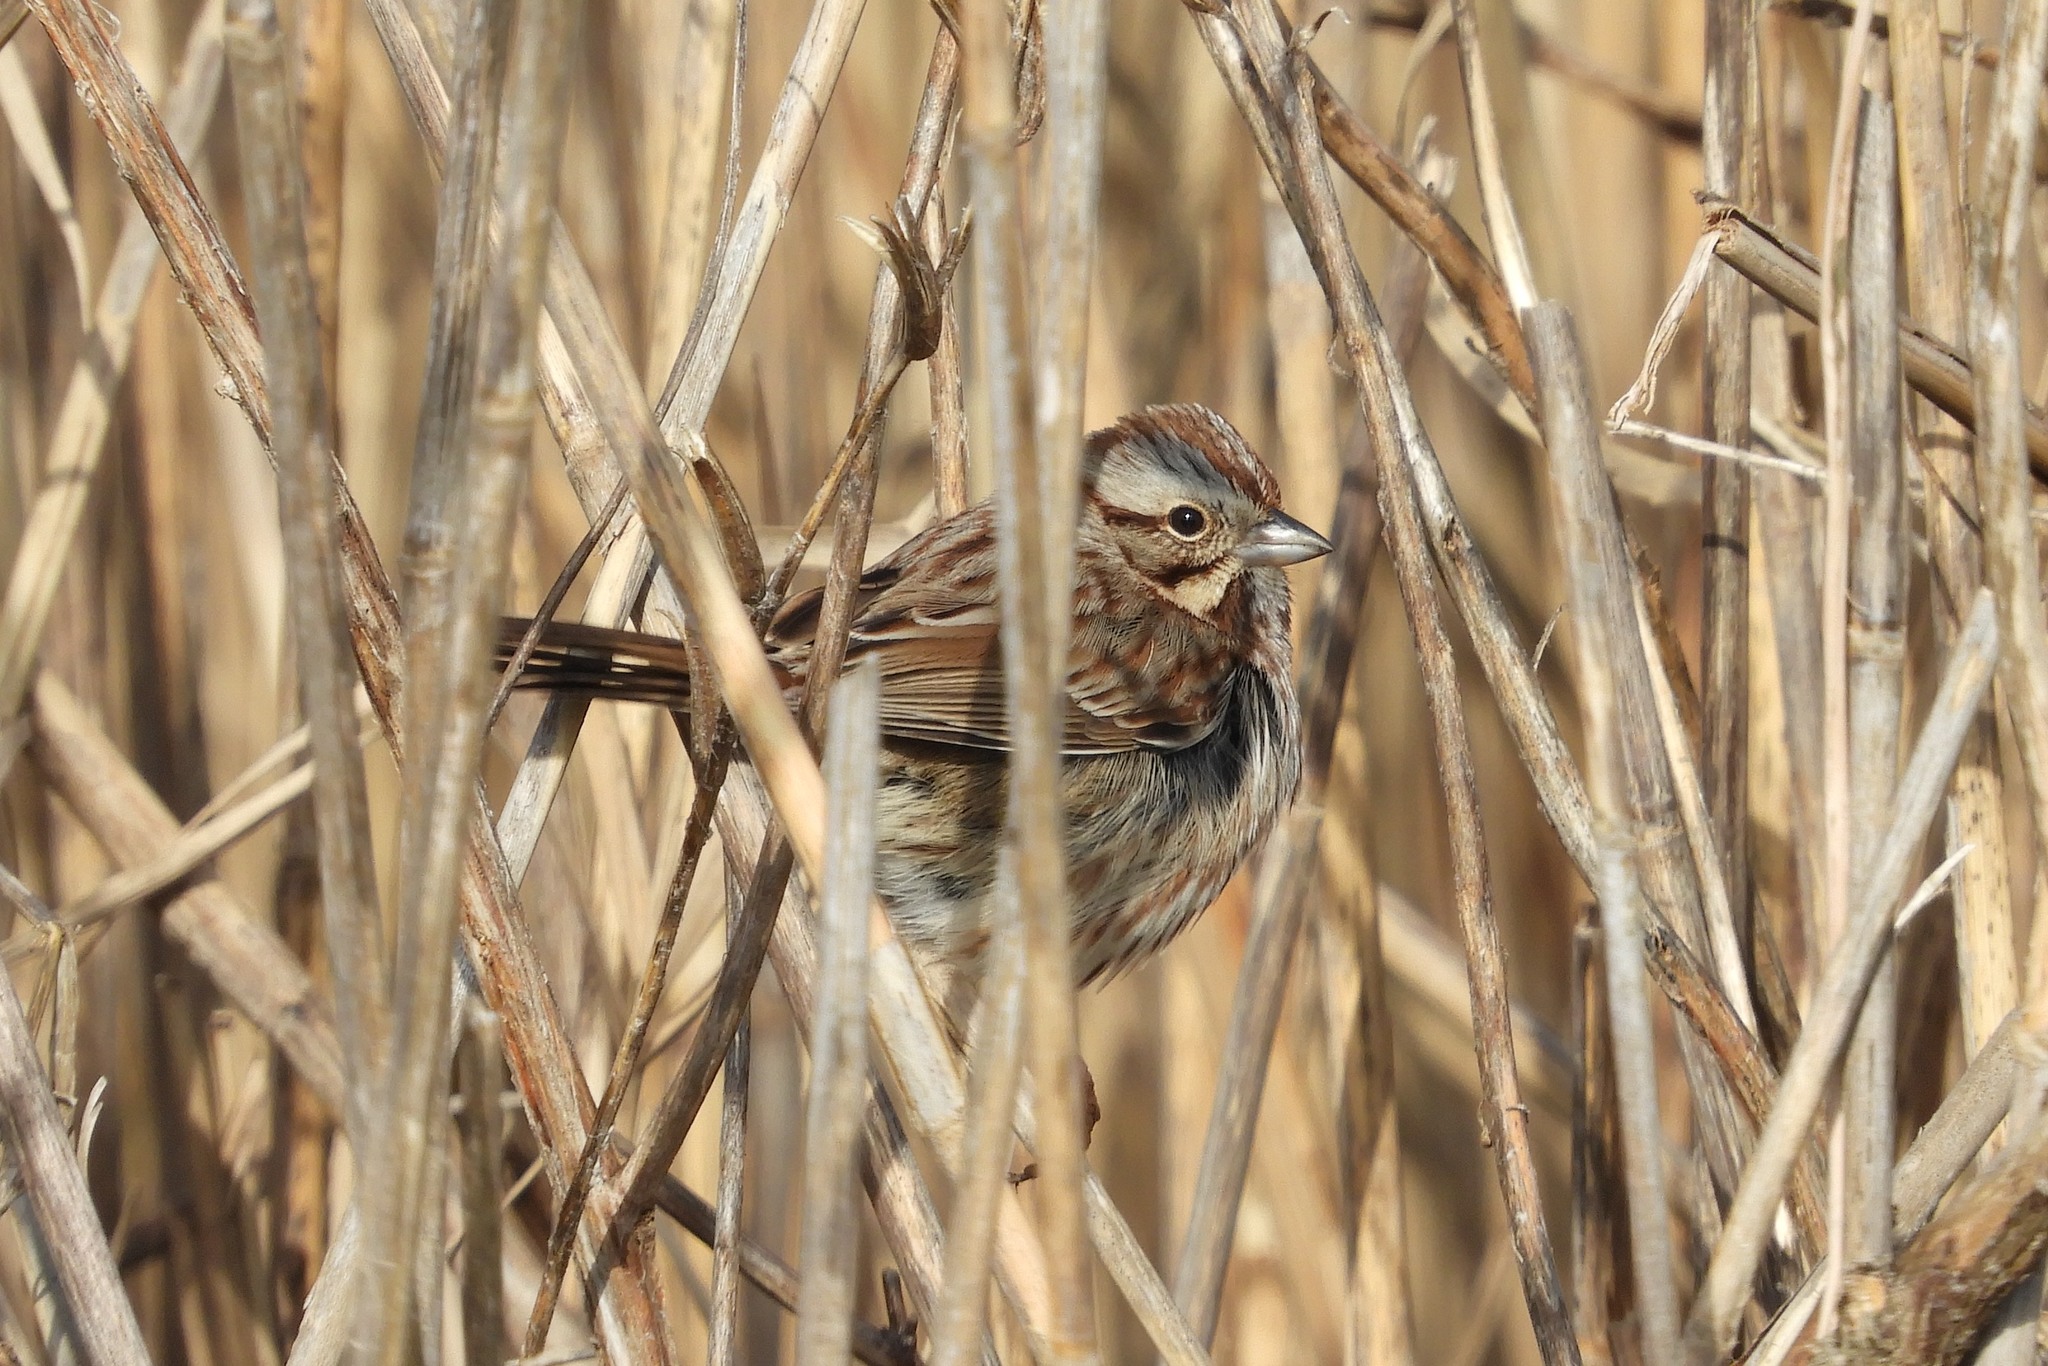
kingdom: Animalia
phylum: Chordata
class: Aves
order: Passeriformes
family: Passerellidae
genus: Melospiza
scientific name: Melospiza melodia
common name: Song sparrow
